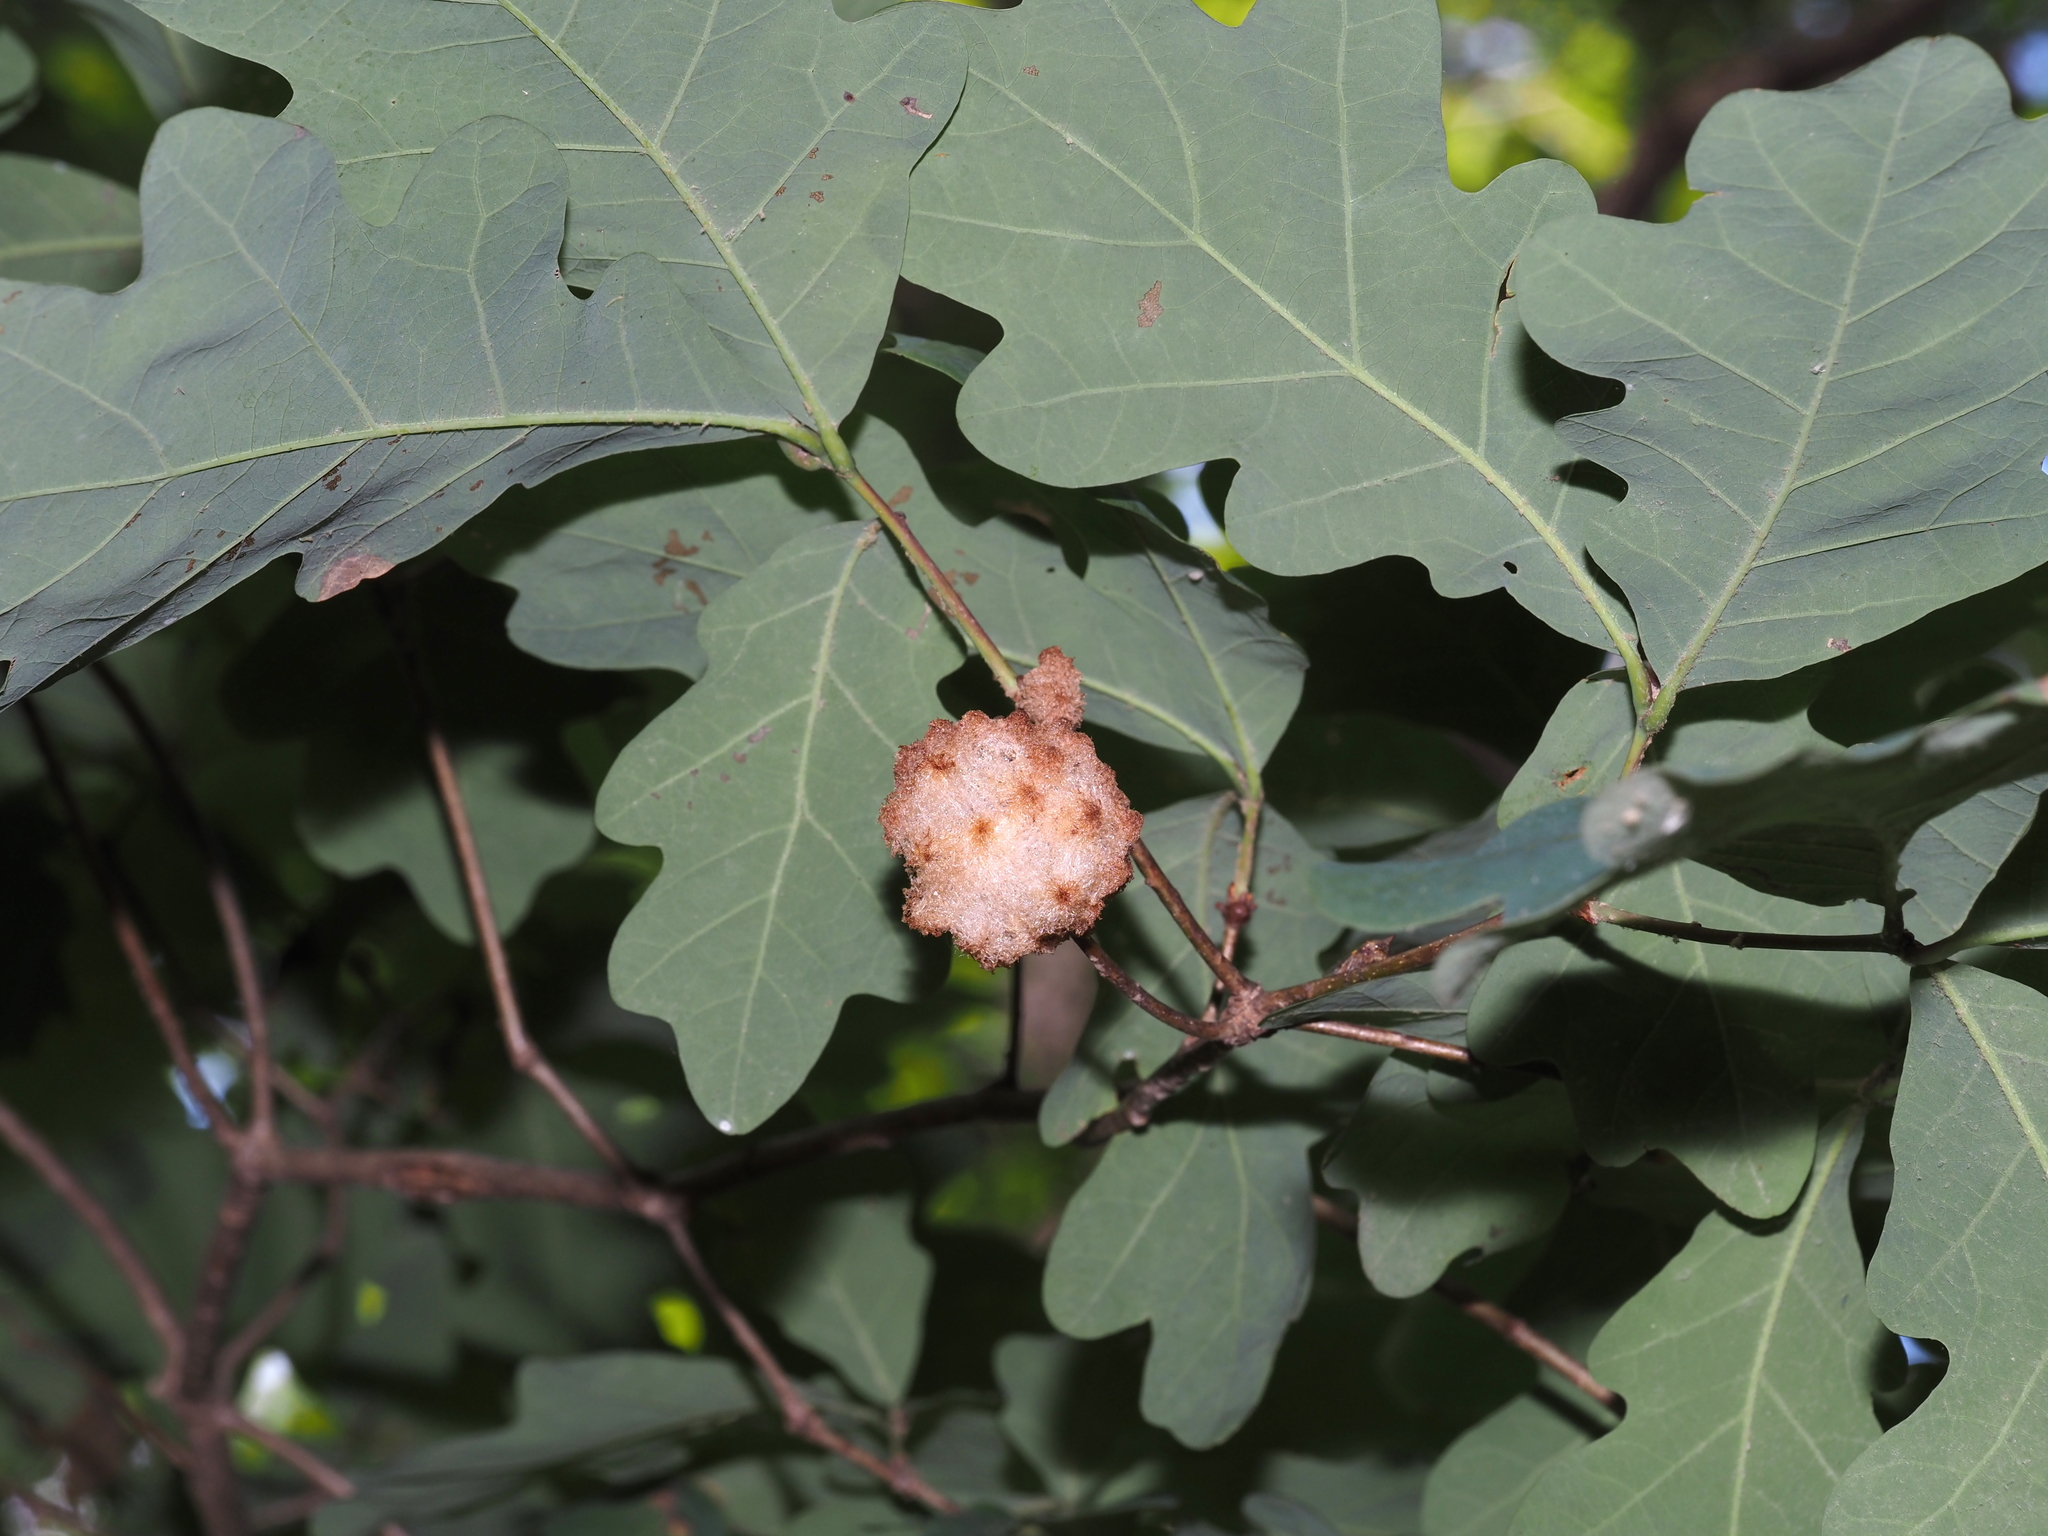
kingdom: Animalia
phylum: Arthropoda
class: Insecta
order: Hymenoptera
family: Cynipidae
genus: Callirhytis
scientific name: Callirhytis
